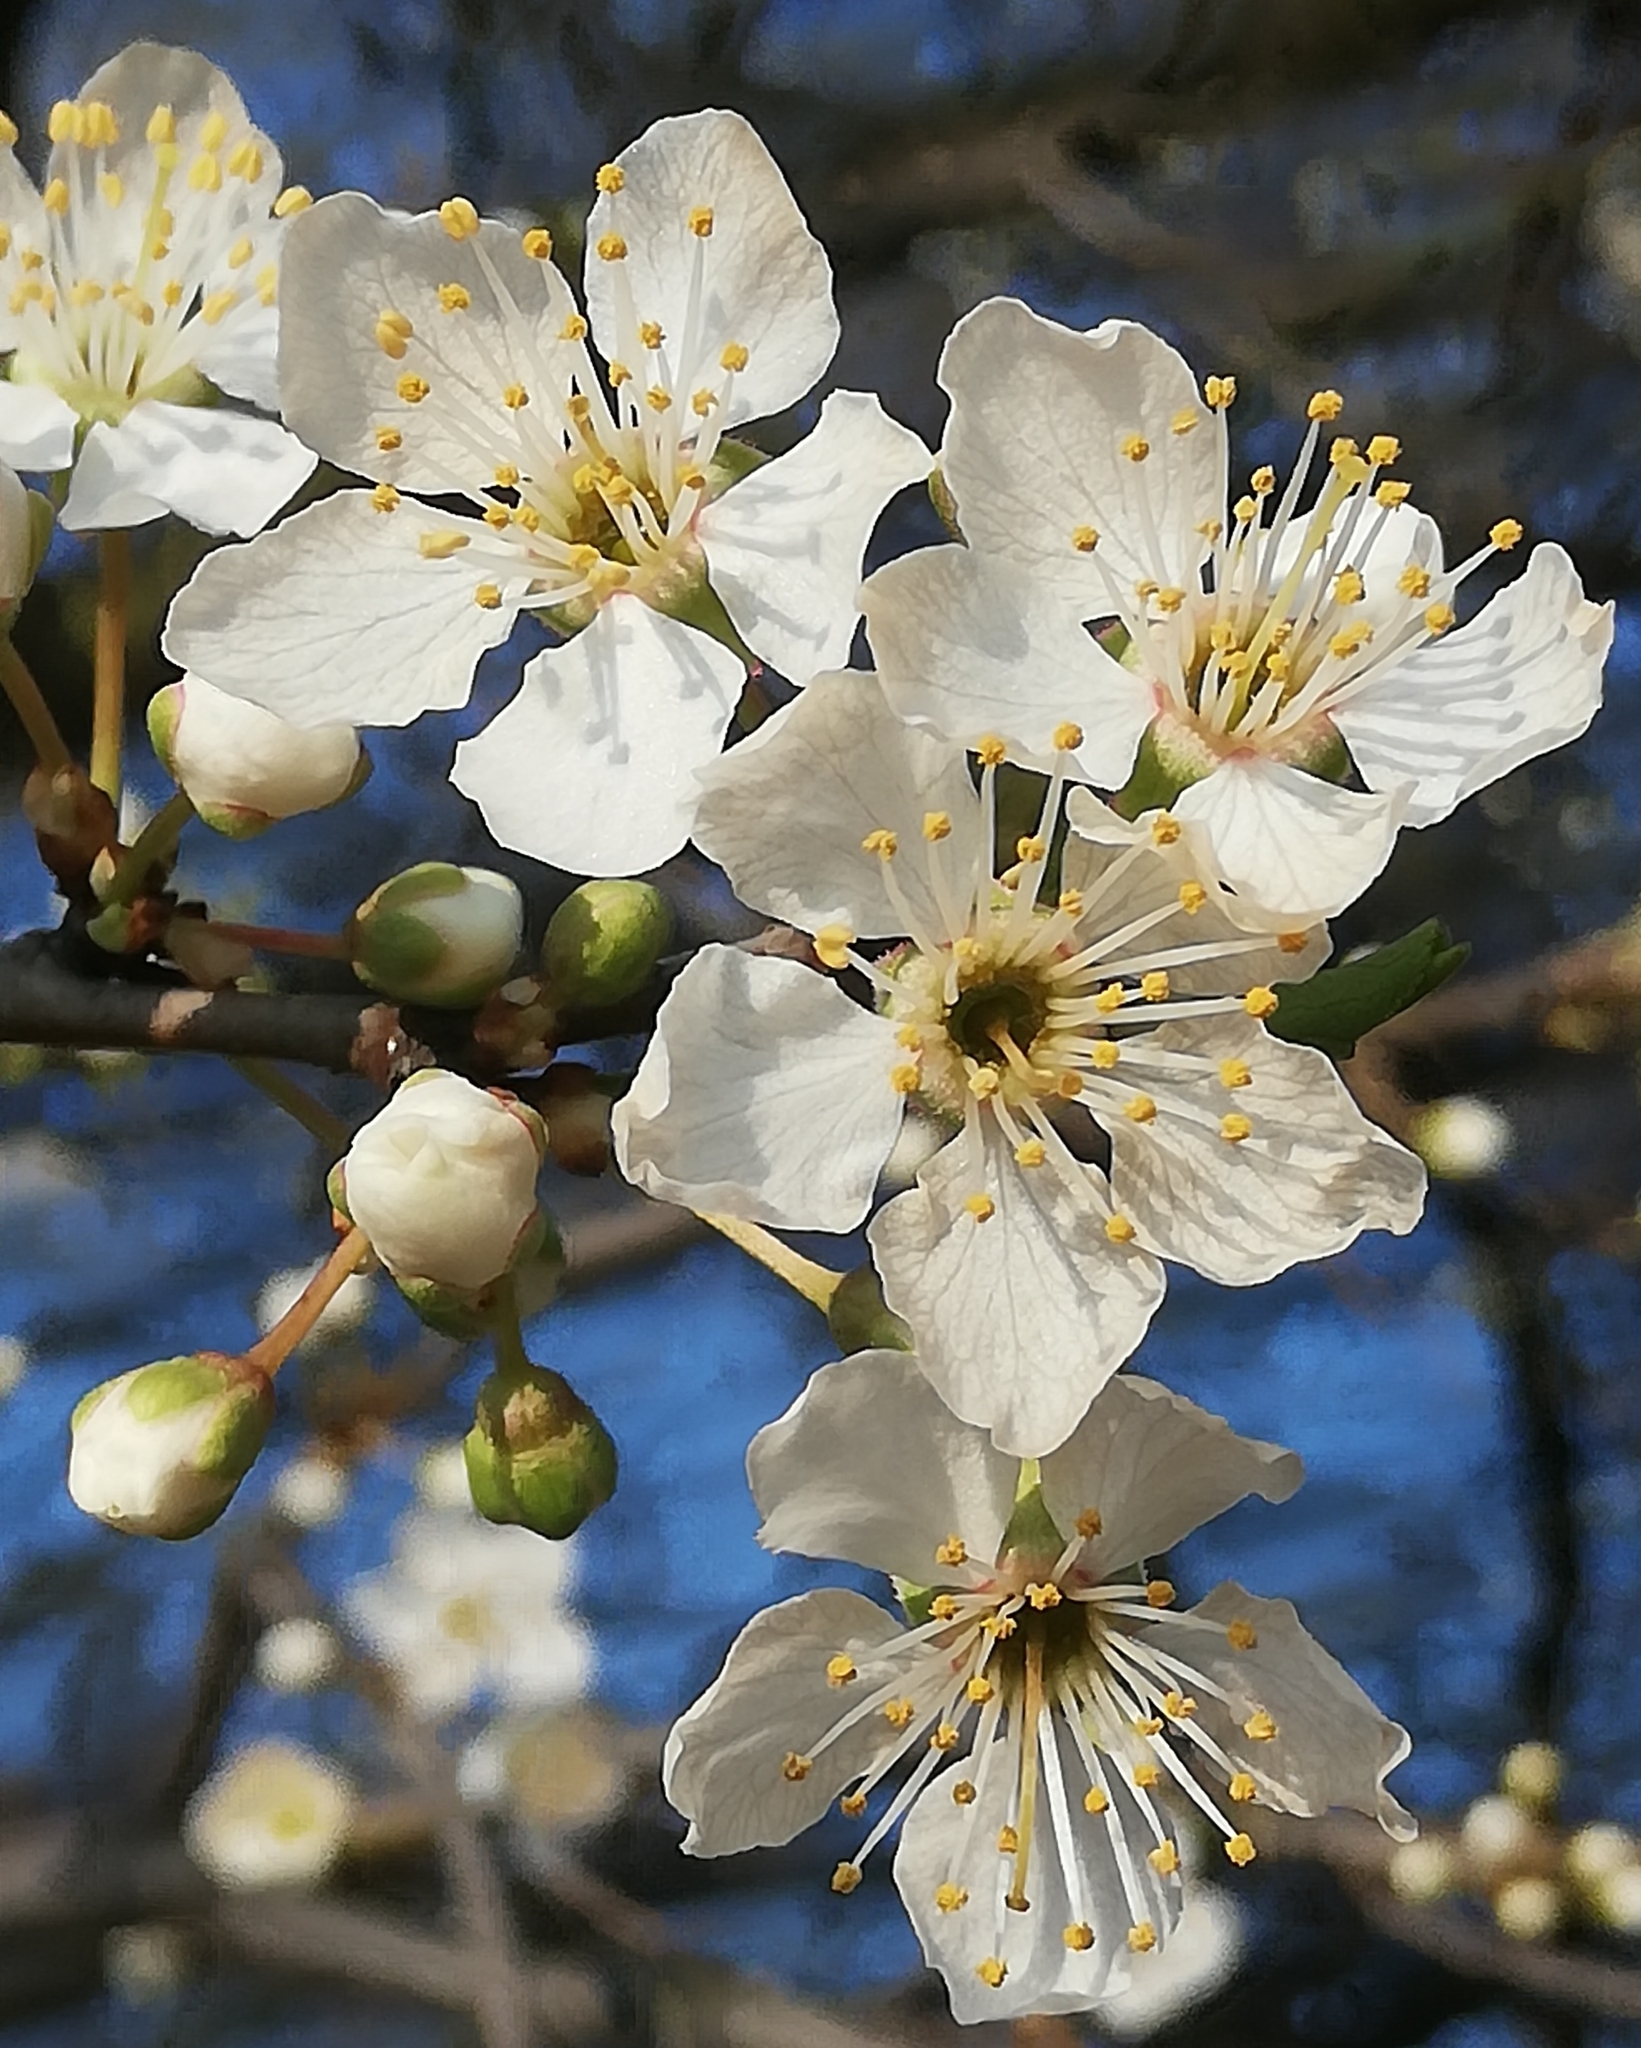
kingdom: Plantae
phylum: Tracheophyta
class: Magnoliopsida
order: Rosales
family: Rosaceae
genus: Prunus
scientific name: Prunus cerasifera
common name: Cherry plum
